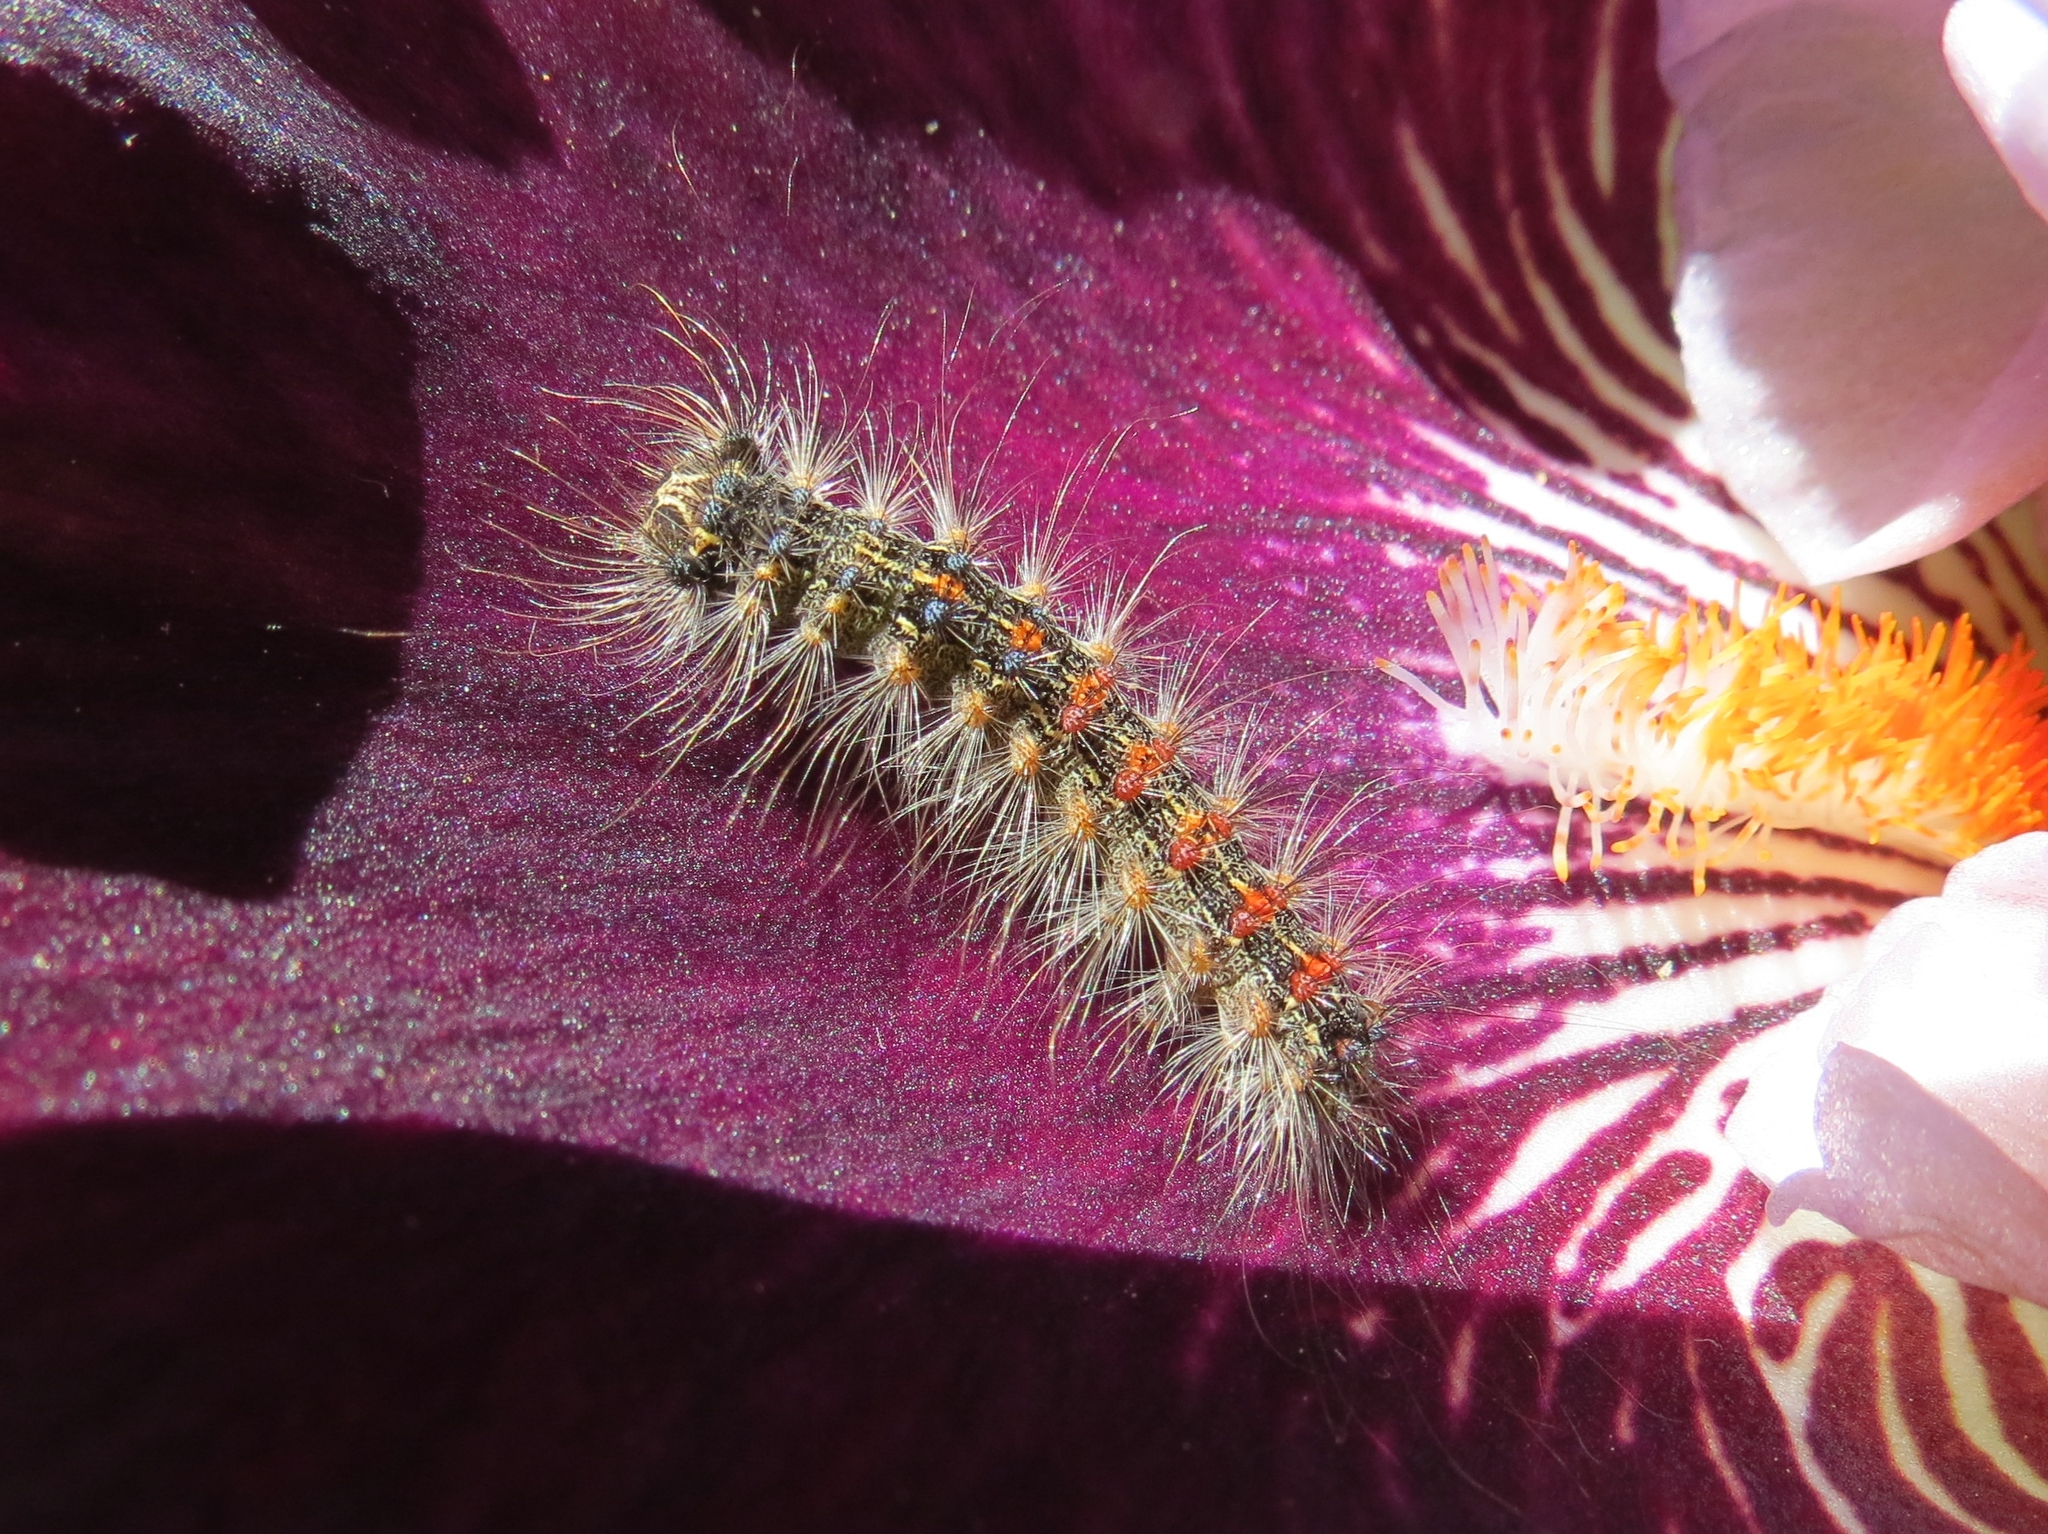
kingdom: Animalia
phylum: Arthropoda
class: Insecta
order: Lepidoptera
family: Erebidae
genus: Lymantria
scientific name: Lymantria dispar
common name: Gypsy moth
